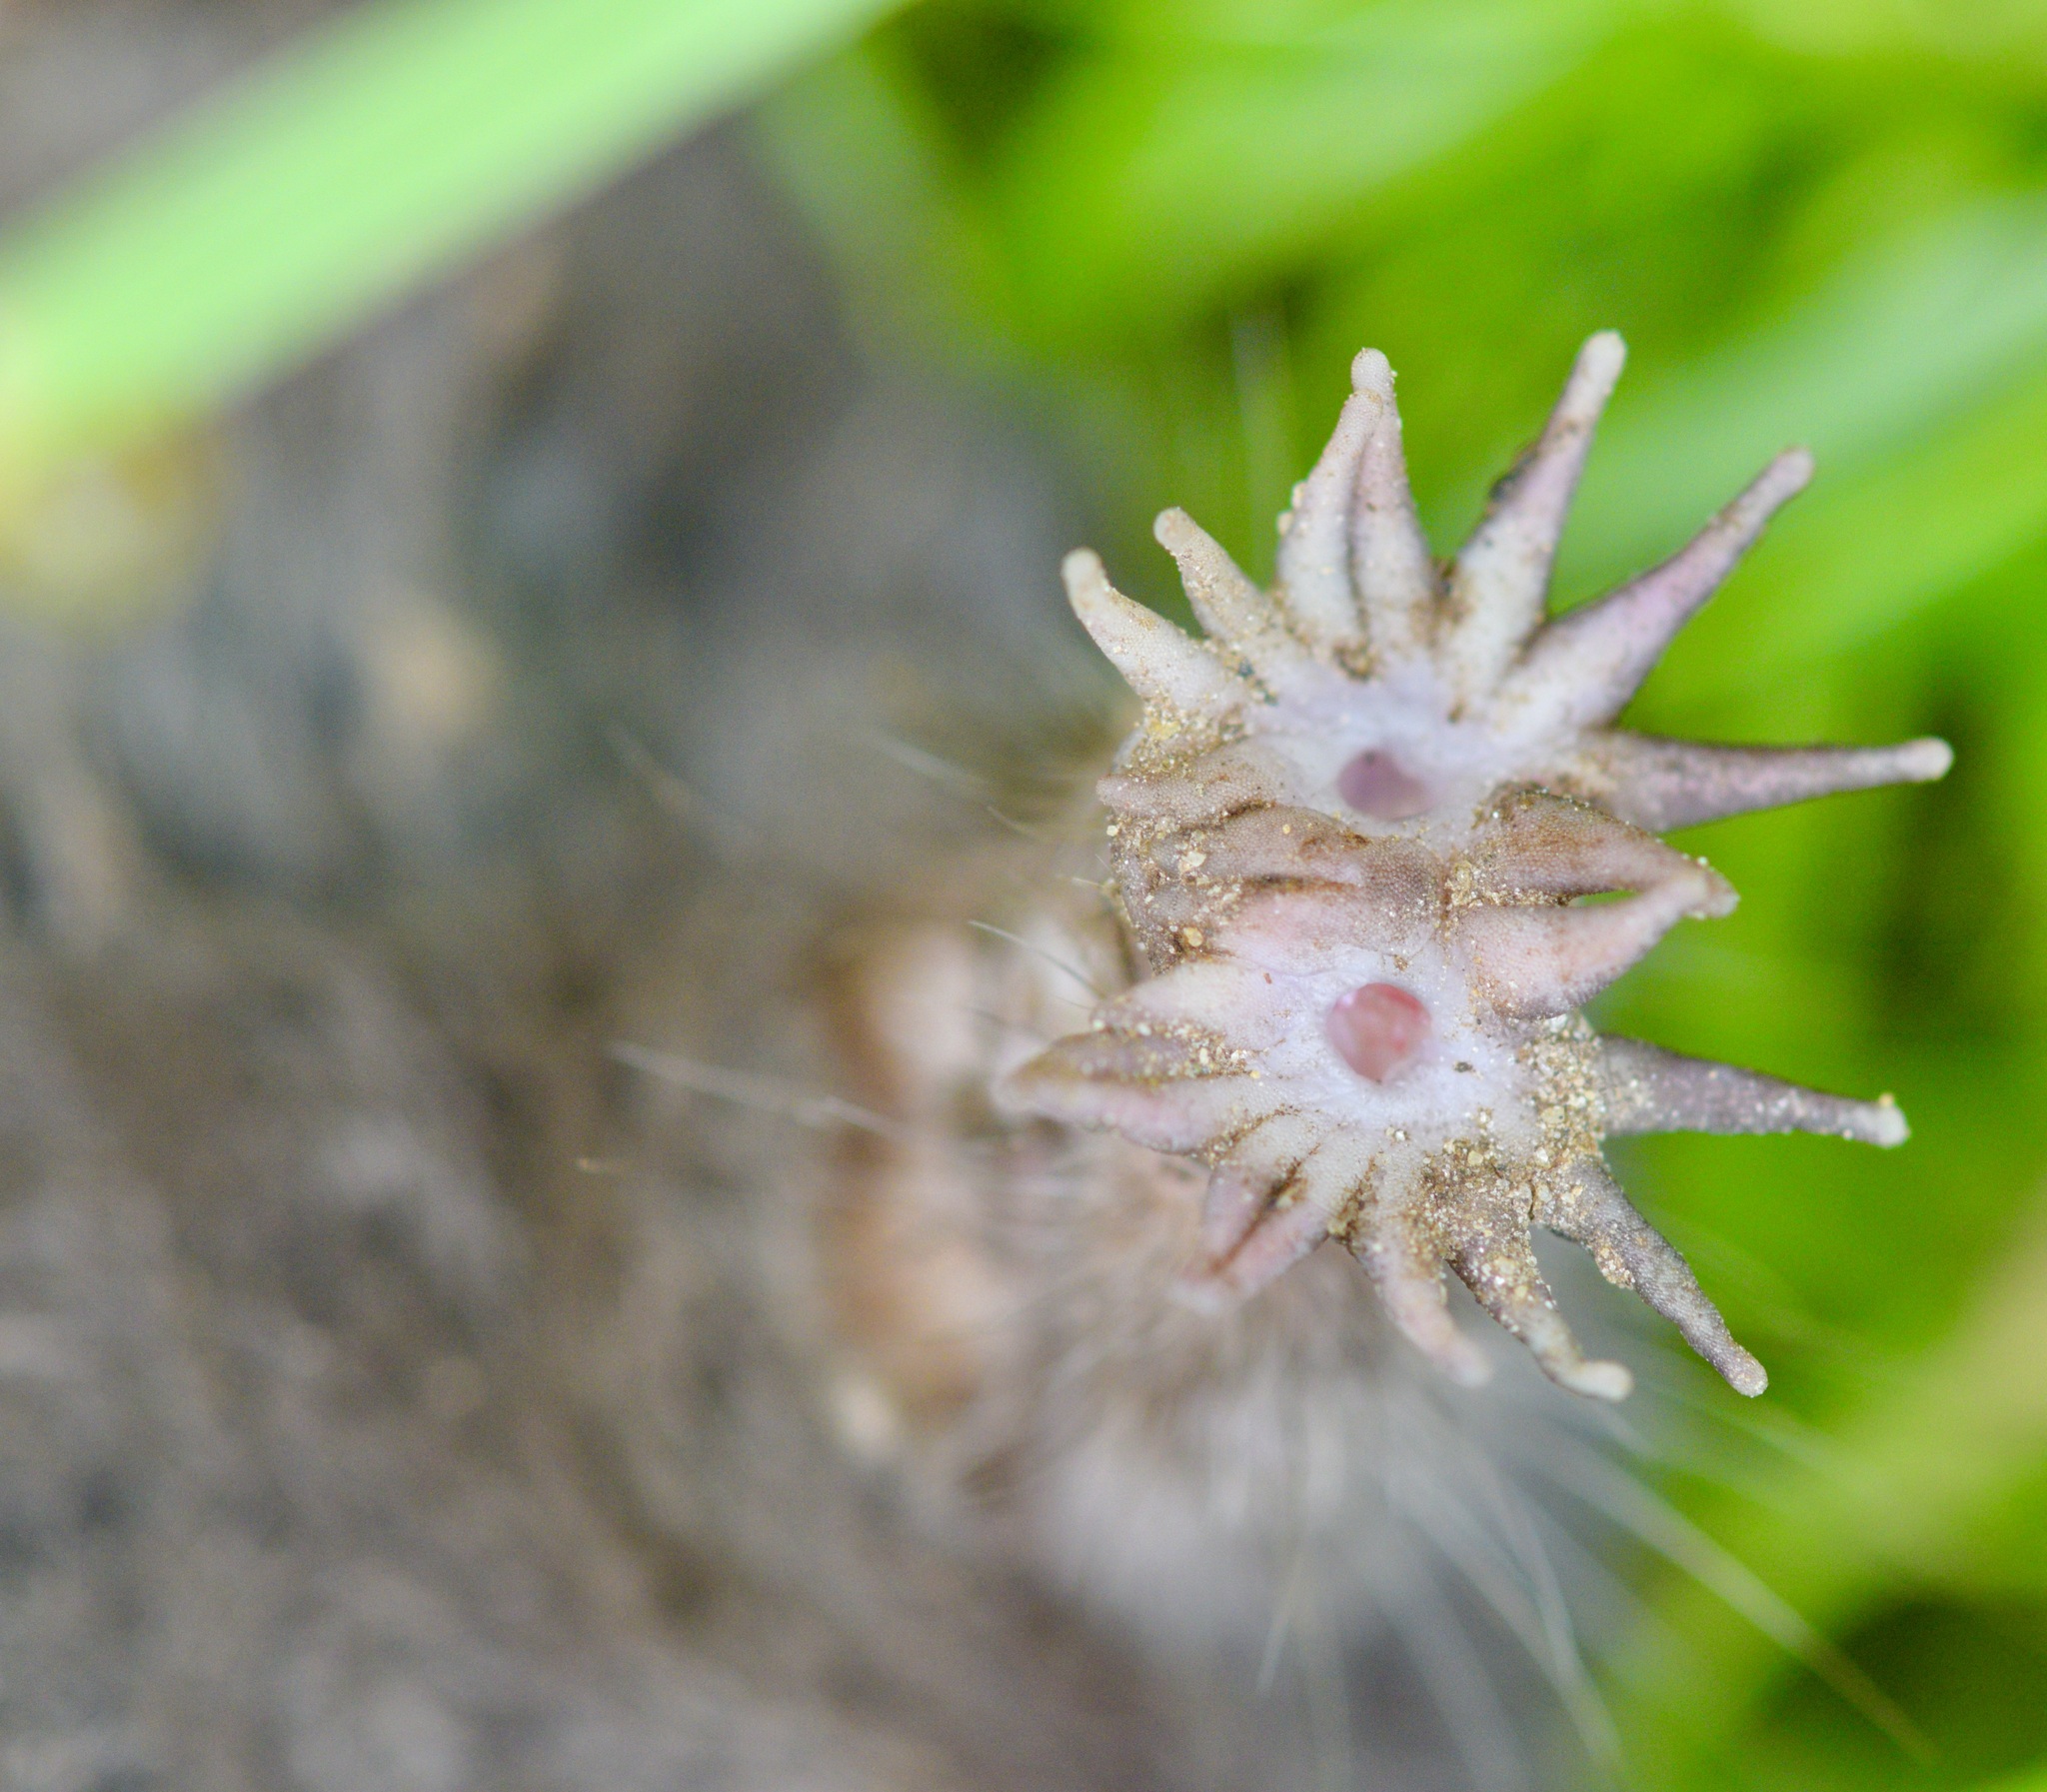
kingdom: Animalia
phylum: Chordata
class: Mammalia
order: Soricomorpha
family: Talpidae
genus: Condylura
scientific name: Condylura cristata
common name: Star-nosed mole
